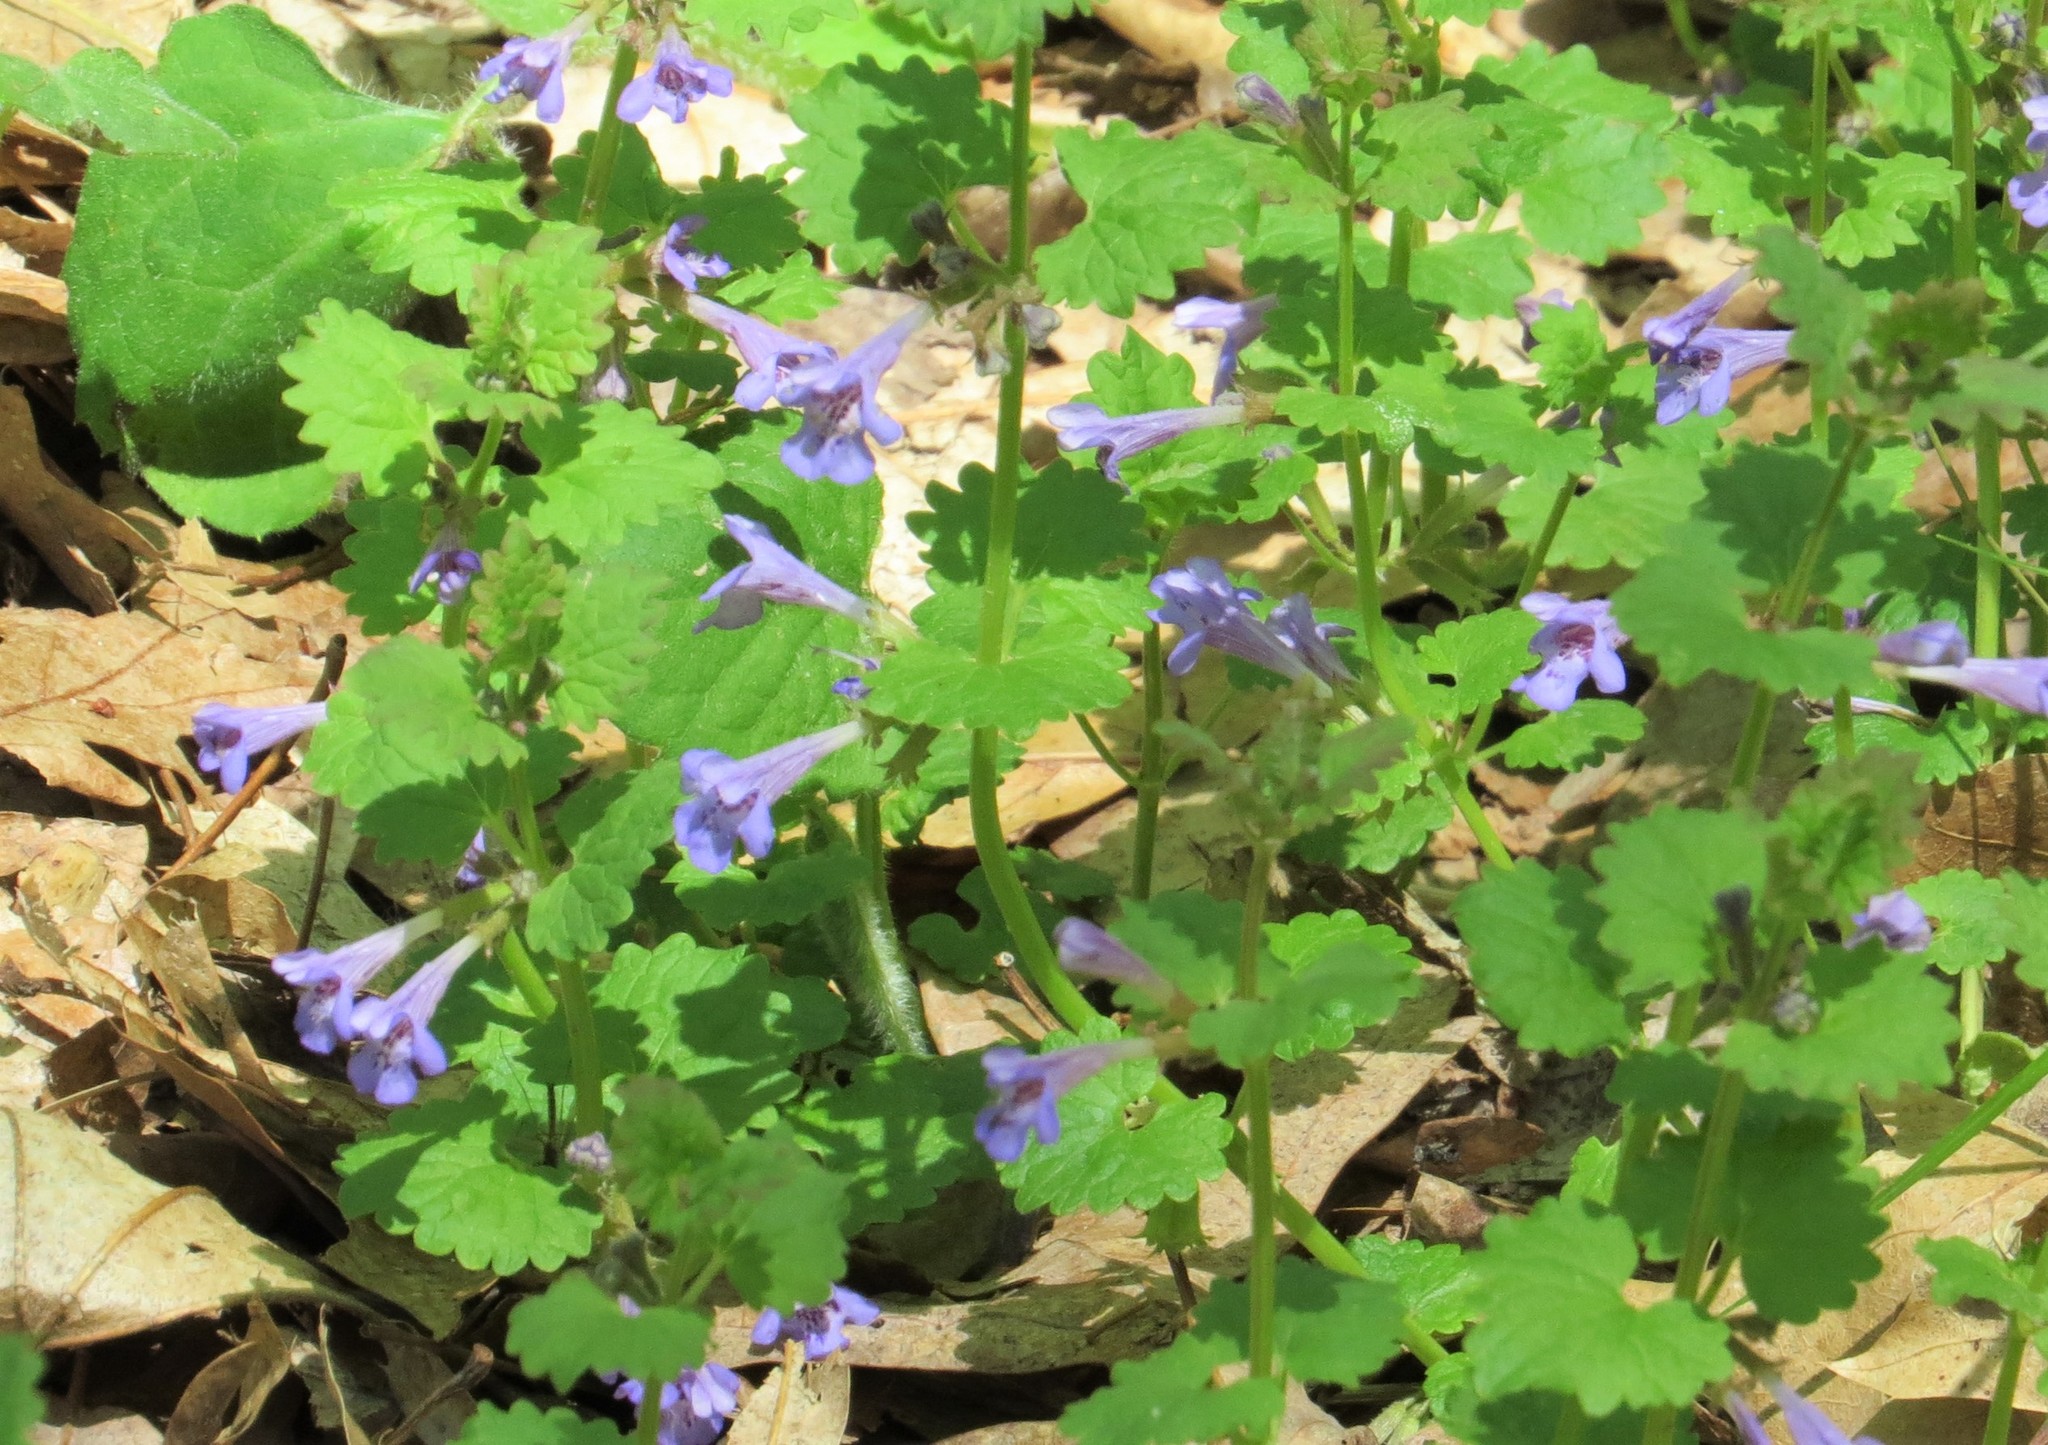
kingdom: Plantae
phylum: Tracheophyta
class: Magnoliopsida
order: Lamiales
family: Lamiaceae
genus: Glechoma
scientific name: Glechoma hederacea
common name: Ground ivy
